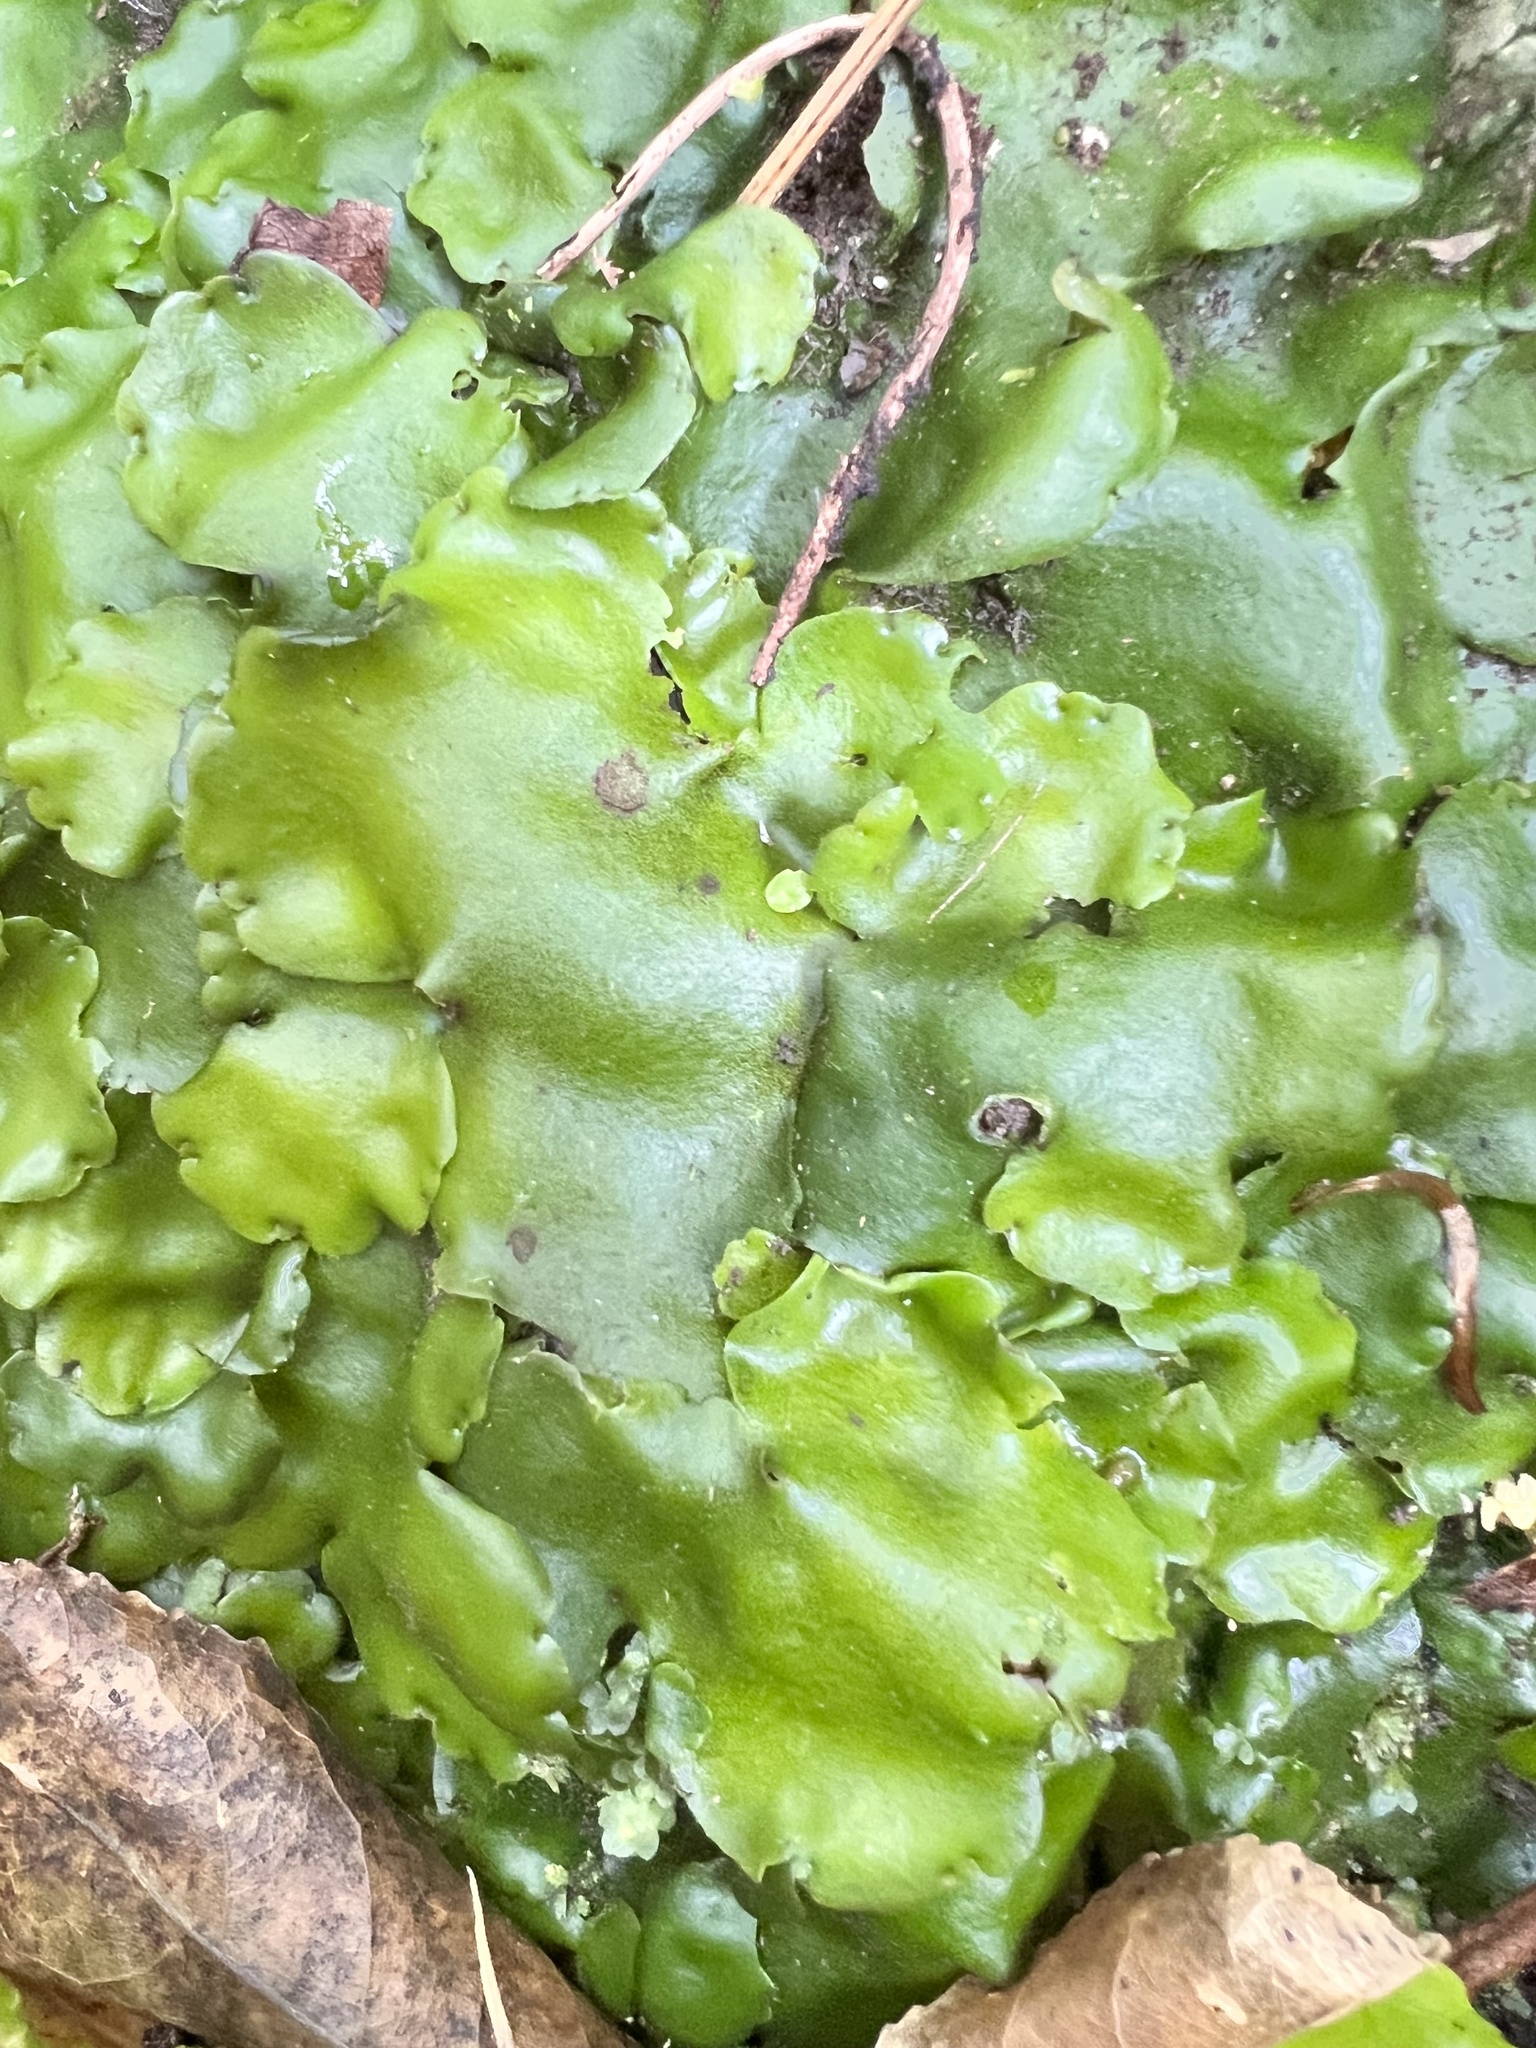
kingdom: Plantae
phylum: Marchantiophyta
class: Marchantiopsida
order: Marchantiales
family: Monocleaceae
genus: Monoclea
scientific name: Monoclea forsteri
